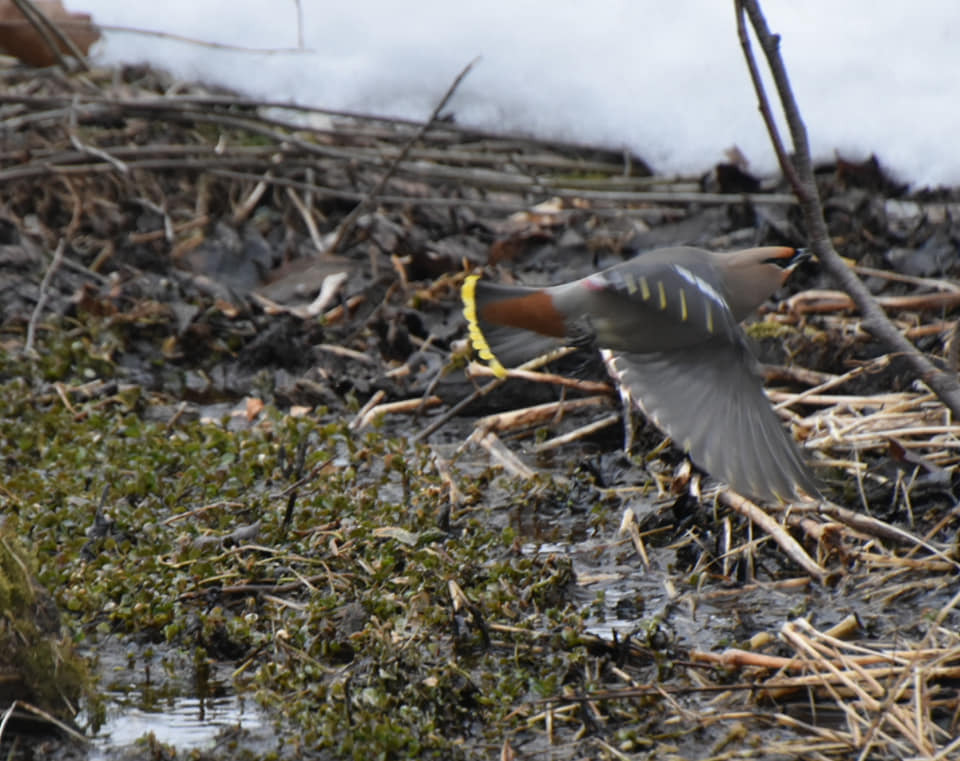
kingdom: Animalia
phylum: Chordata
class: Aves
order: Passeriformes
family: Bombycillidae
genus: Bombycilla
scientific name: Bombycilla garrulus
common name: Bohemian waxwing
